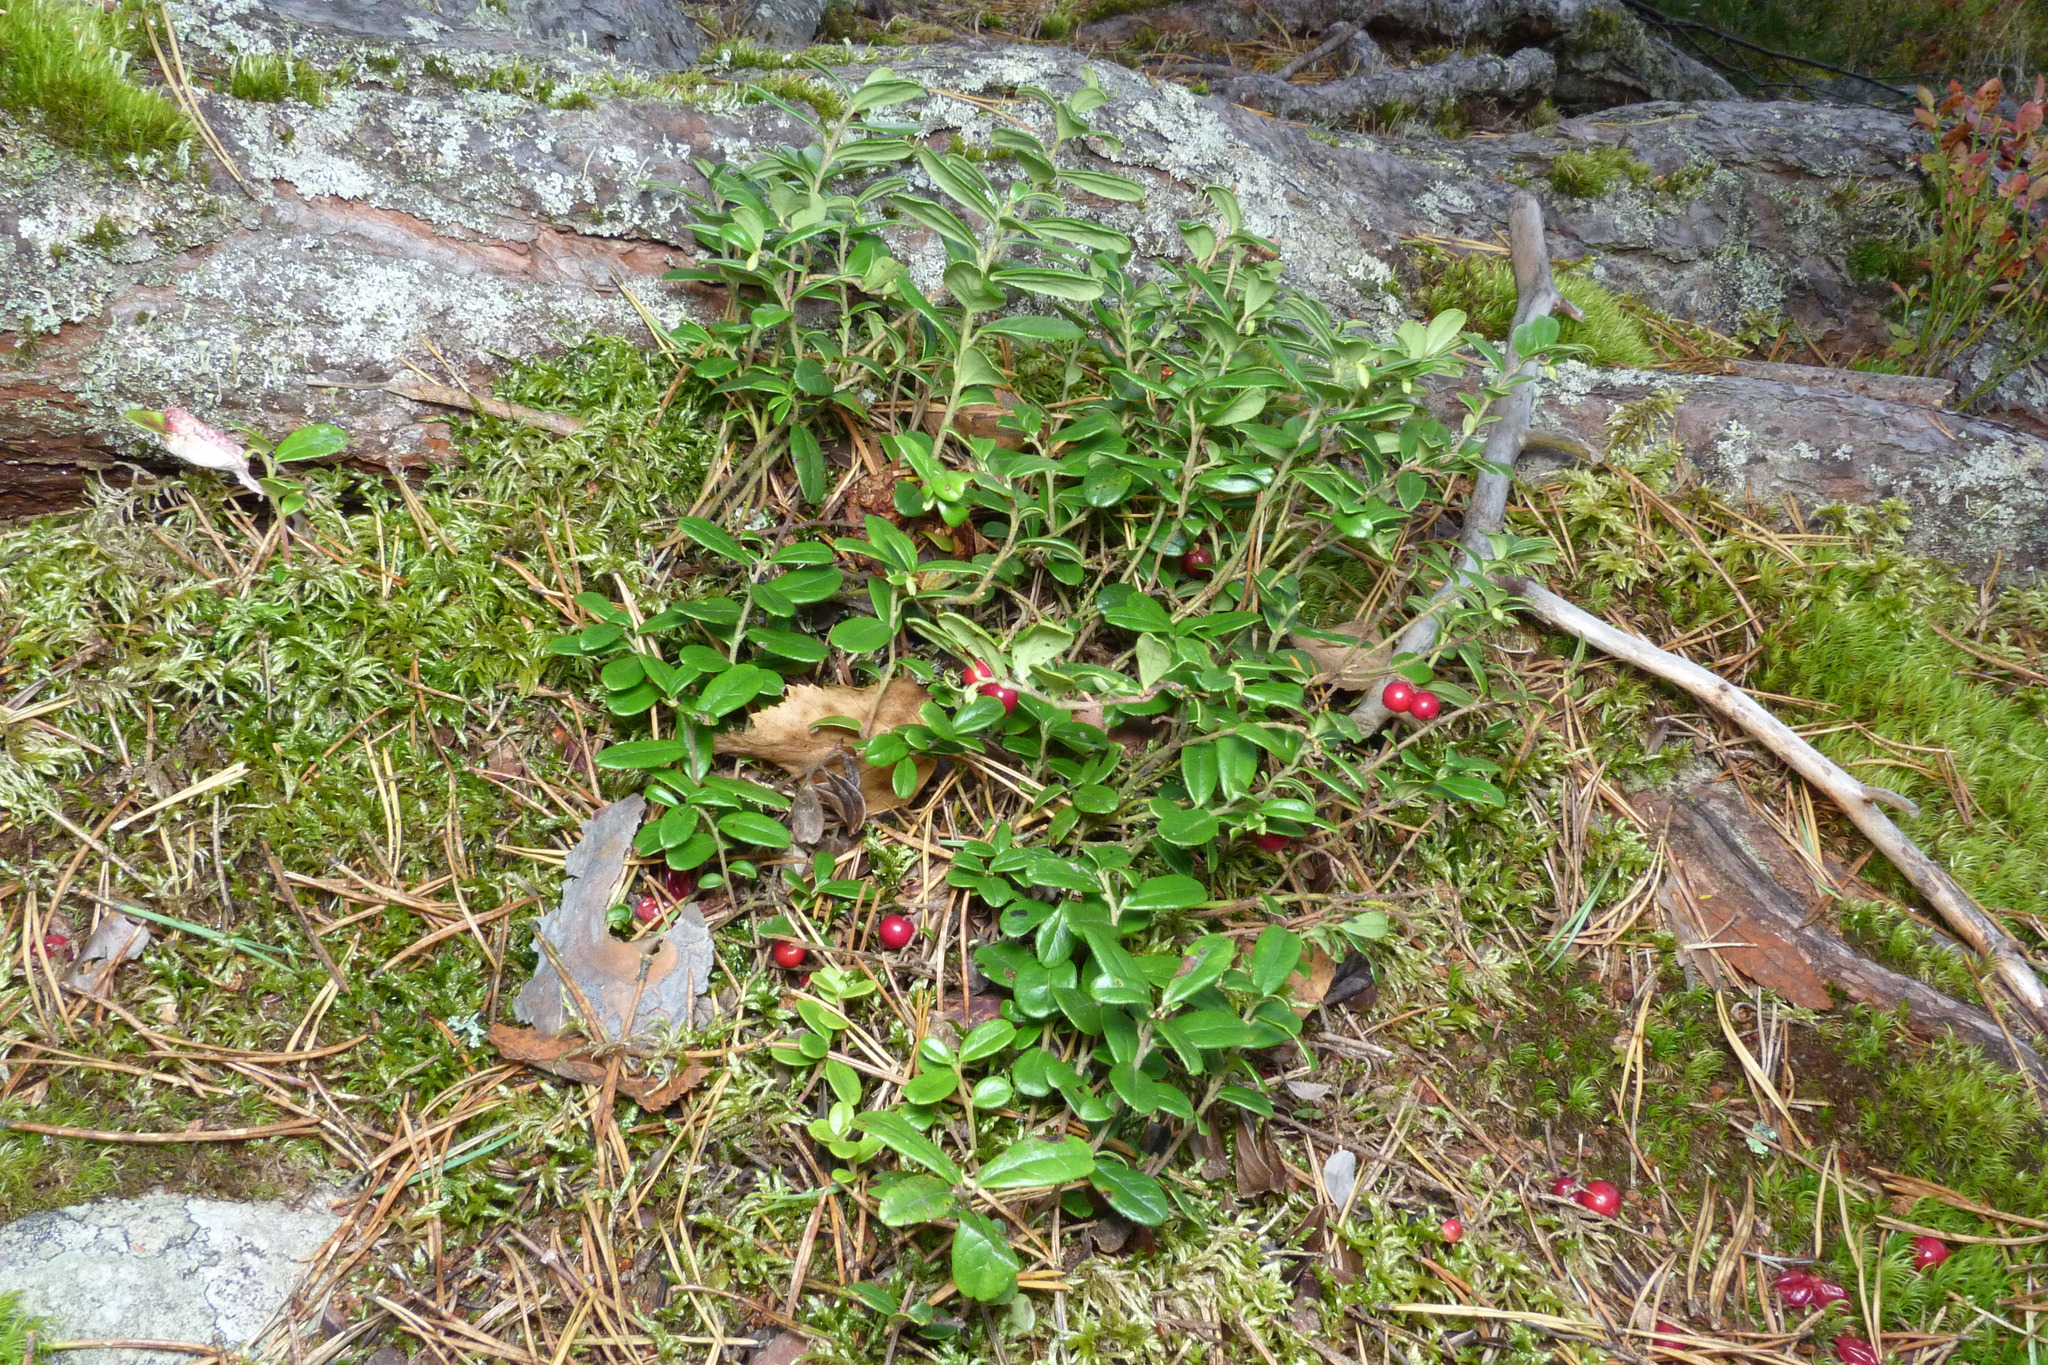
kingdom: Plantae
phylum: Tracheophyta
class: Magnoliopsida
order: Ericales
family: Ericaceae
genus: Vaccinium
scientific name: Vaccinium vitis-idaea
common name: Cowberry
